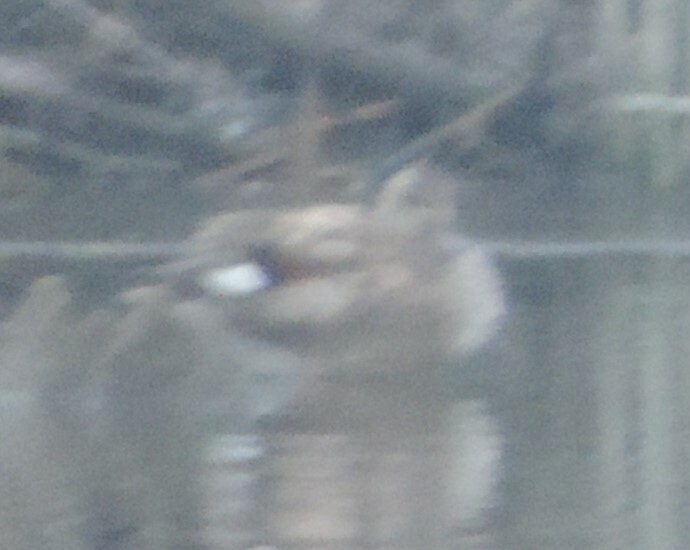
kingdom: Animalia
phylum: Chordata
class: Aves
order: Anseriformes
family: Anatidae
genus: Mareca
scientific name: Mareca strepera
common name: Gadwall
